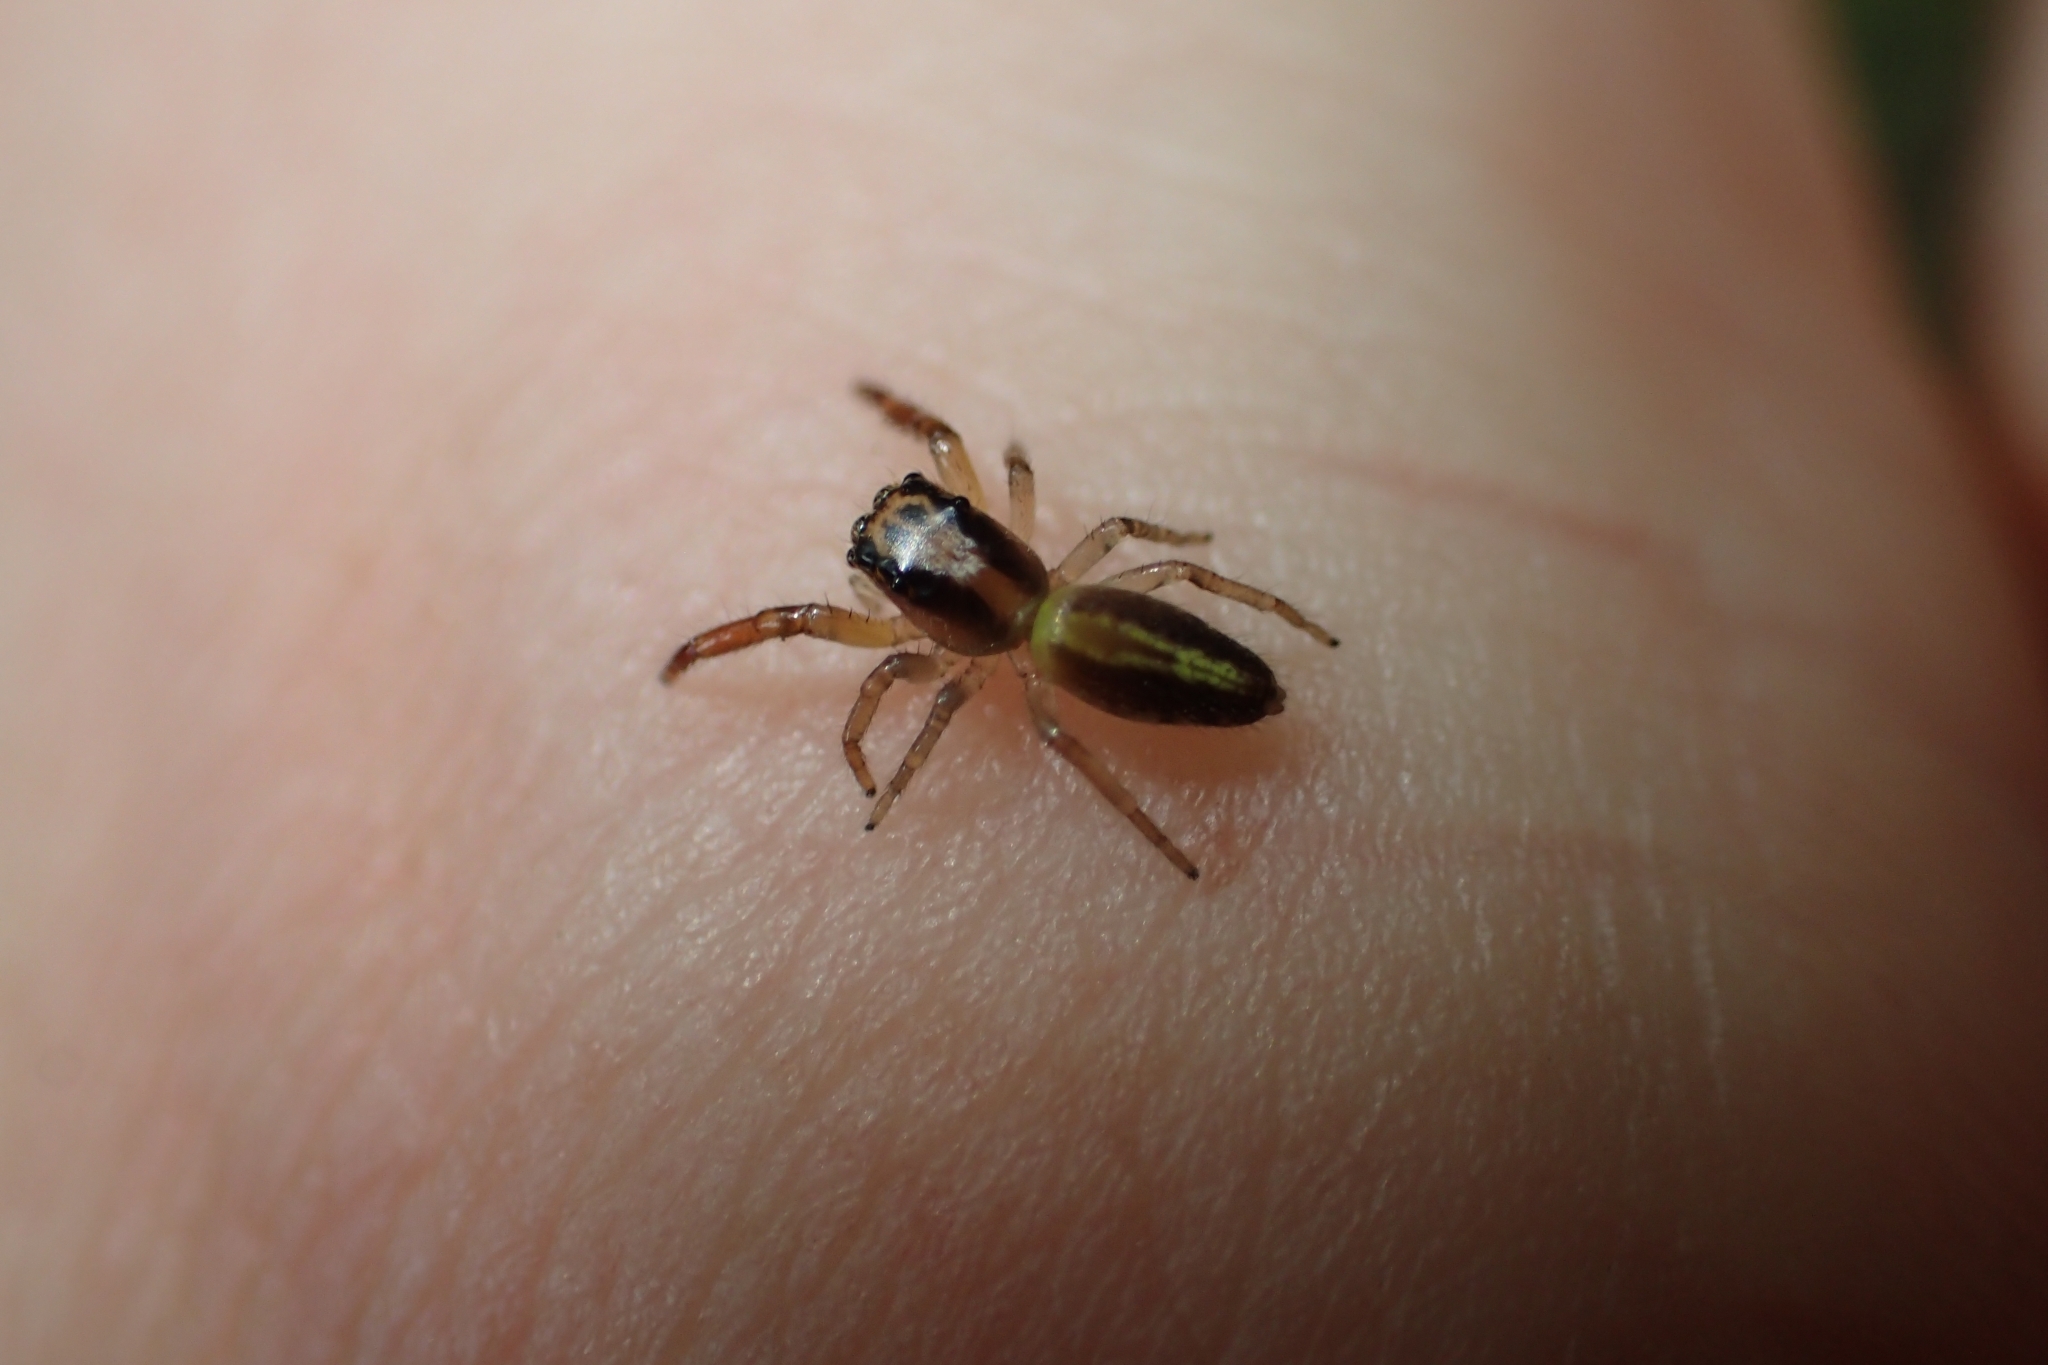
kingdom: Animalia
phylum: Arthropoda
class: Arachnida
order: Araneae
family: Salticidae
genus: Trite
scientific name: Trite planiceps
